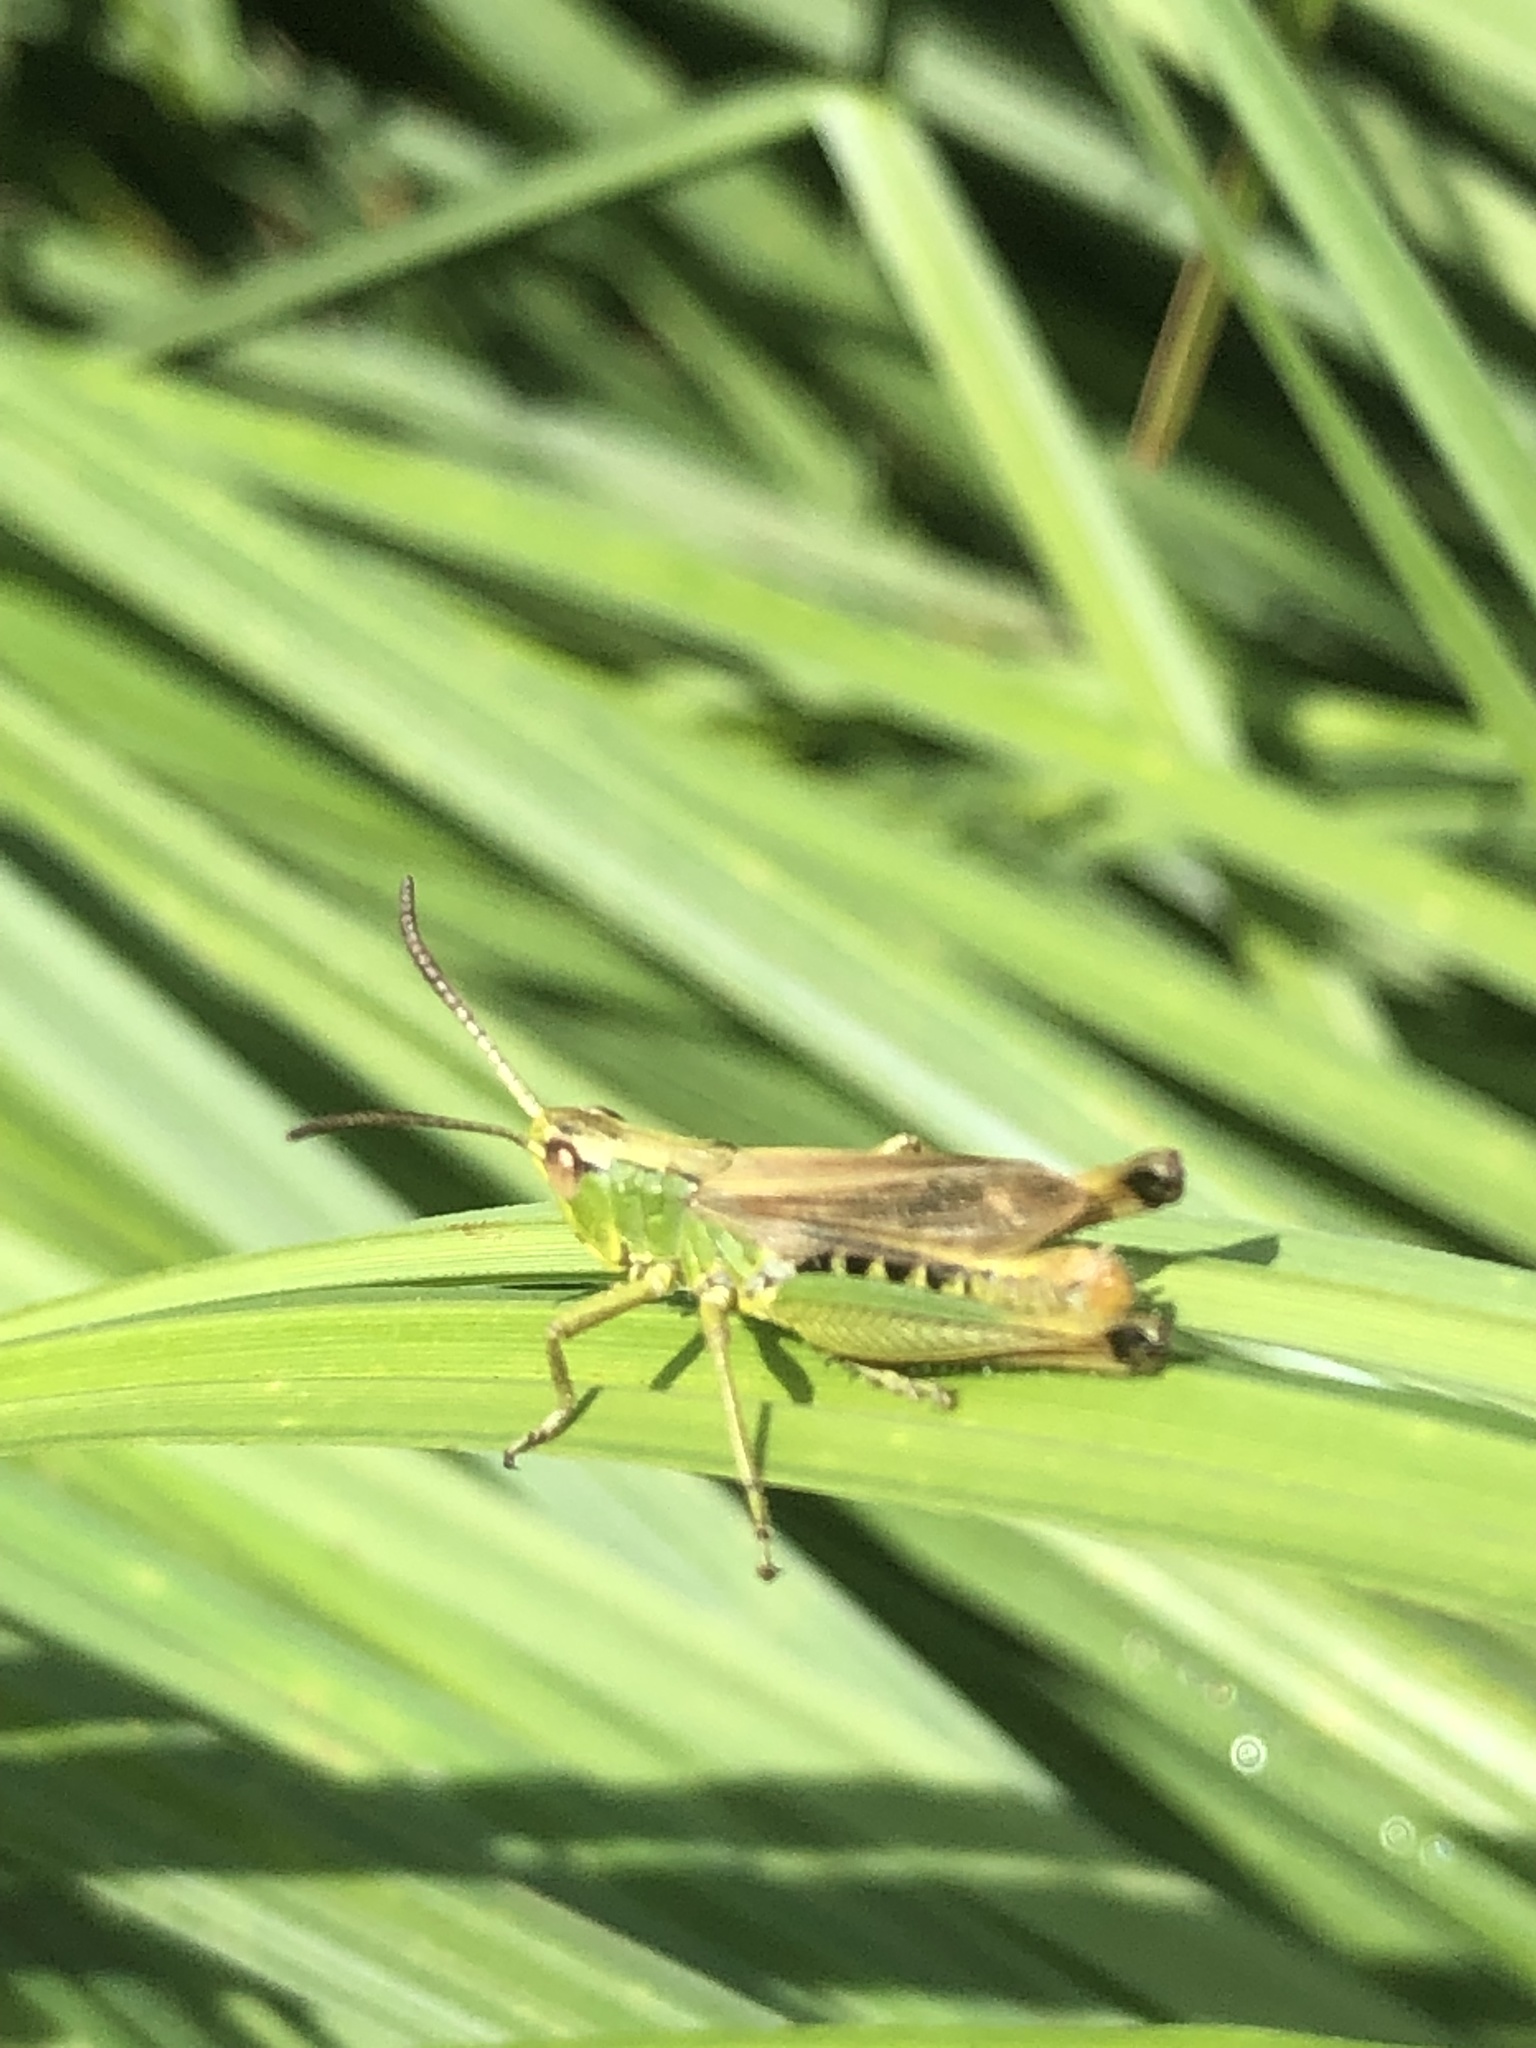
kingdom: Animalia
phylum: Arthropoda
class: Insecta
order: Orthoptera
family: Acrididae
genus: Pseudochorthippus
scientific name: Pseudochorthippus parallelus
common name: Meadow grasshopper
